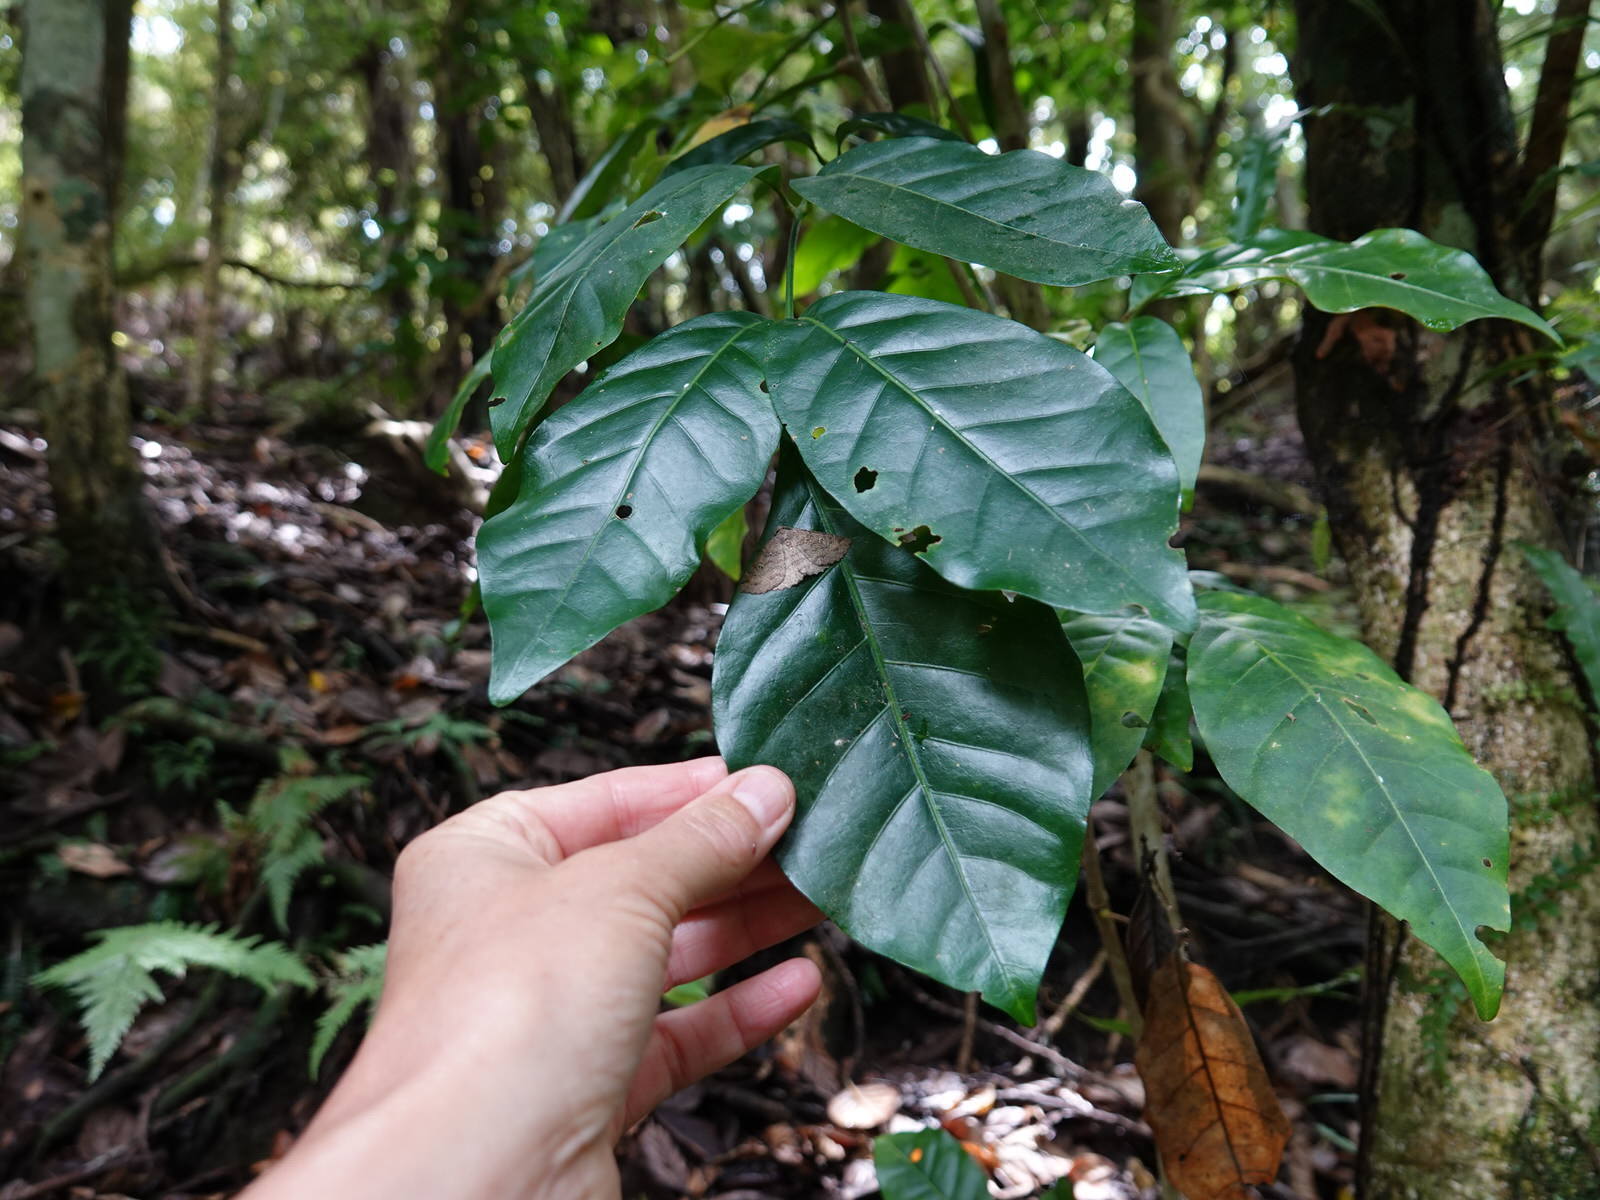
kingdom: Animalia
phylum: Arthropoda
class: Insecta
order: Lepidoptera
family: Geometridae
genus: Cleora
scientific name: Cleora scriptaria
